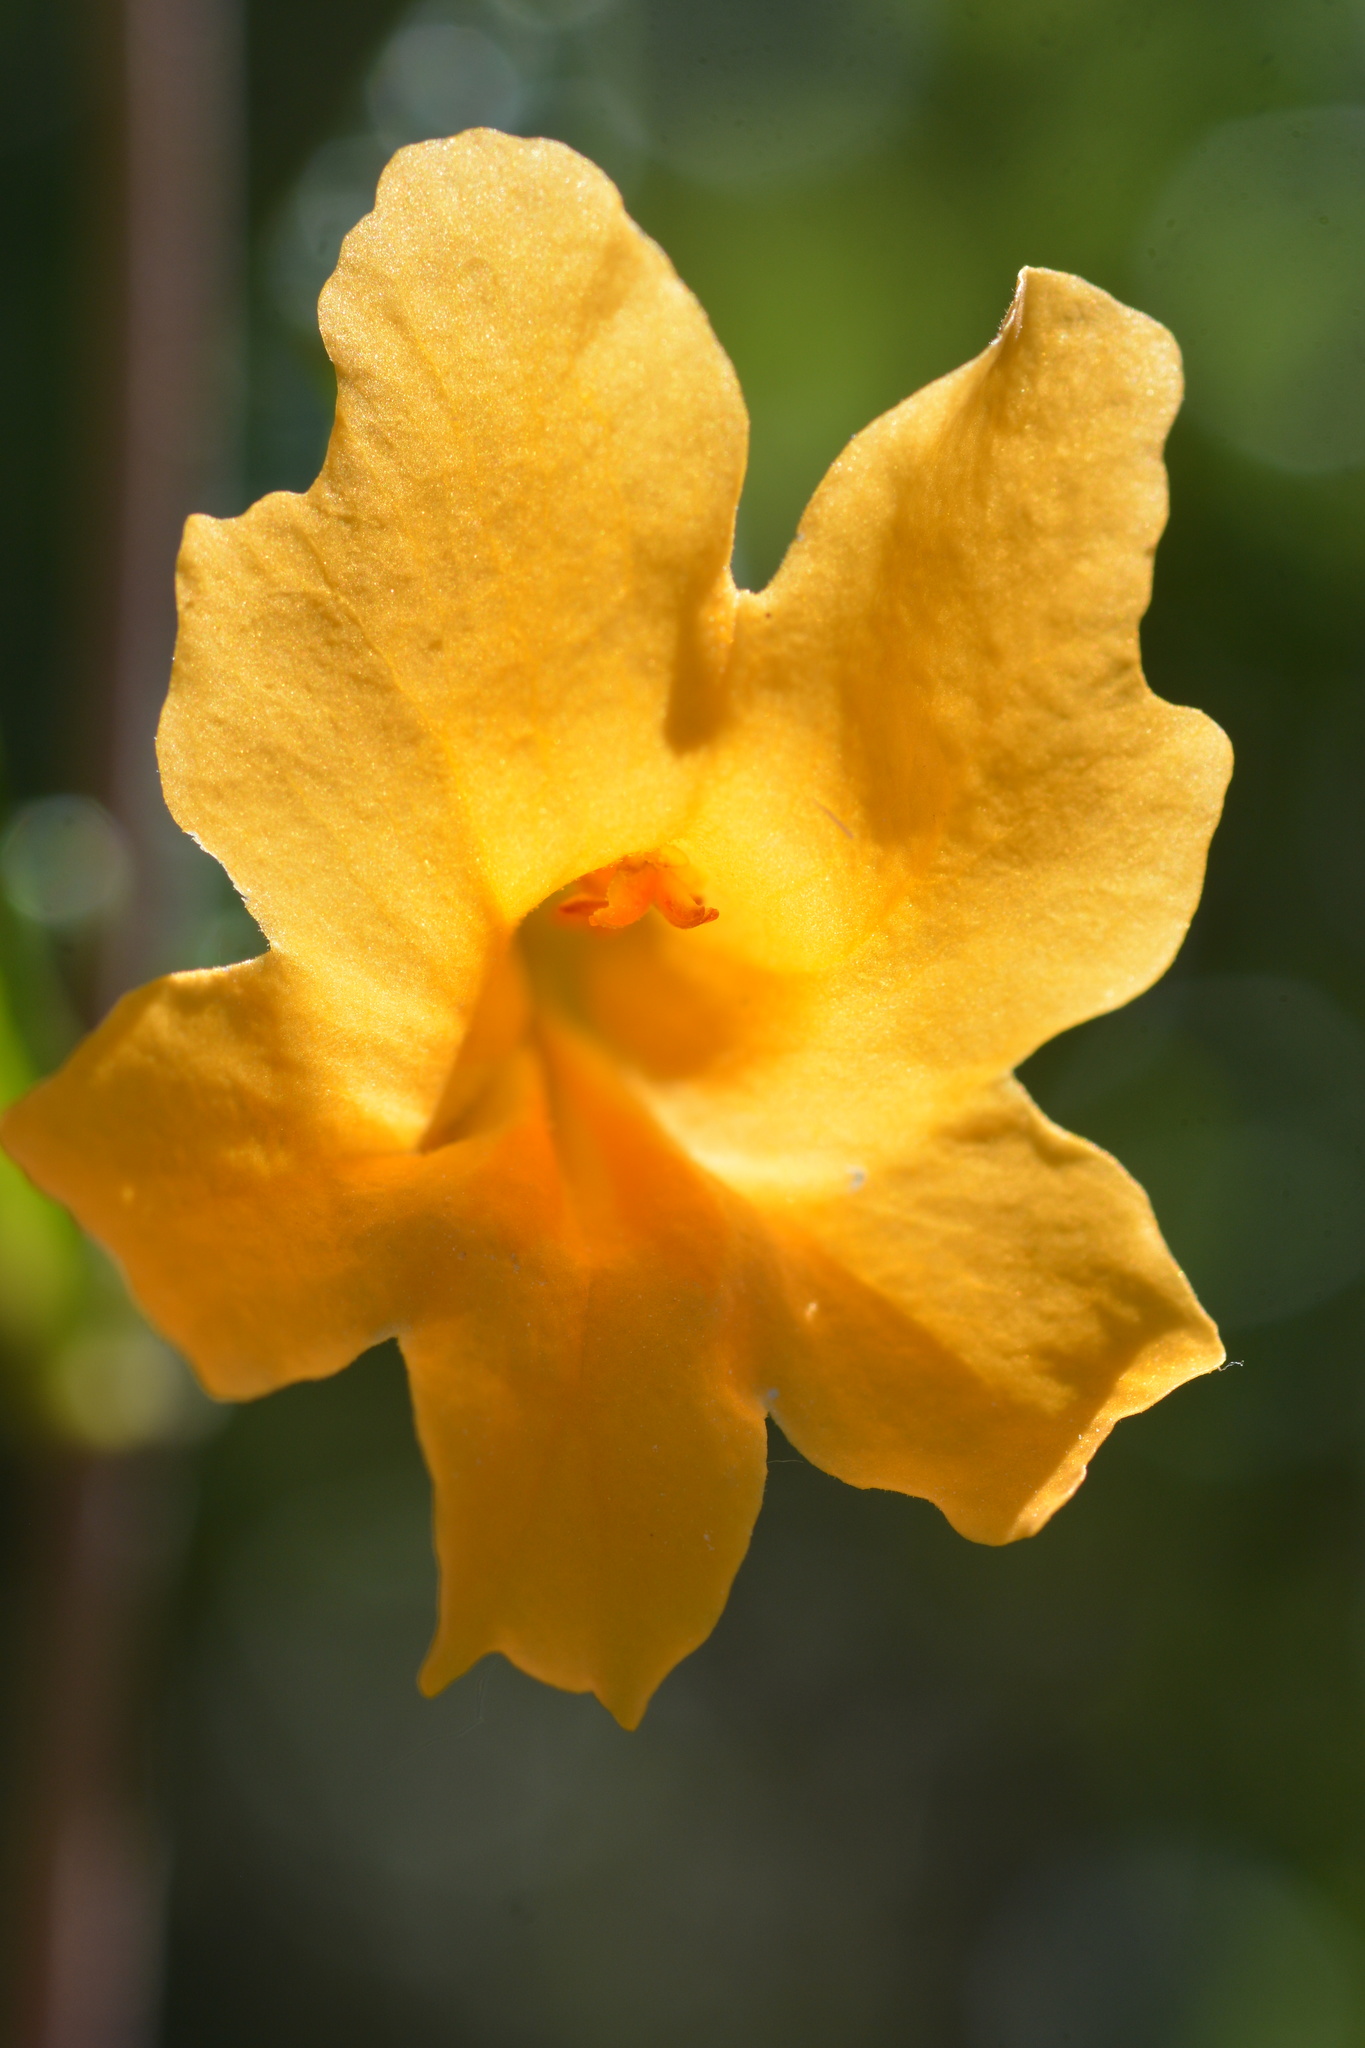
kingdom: Plantae
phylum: Tracheophyta
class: Magnoliopsida
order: Lamiales
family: Phrymaceae
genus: Diplacus
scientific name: Diplacus aurantiacus
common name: Bush monkey-flower
